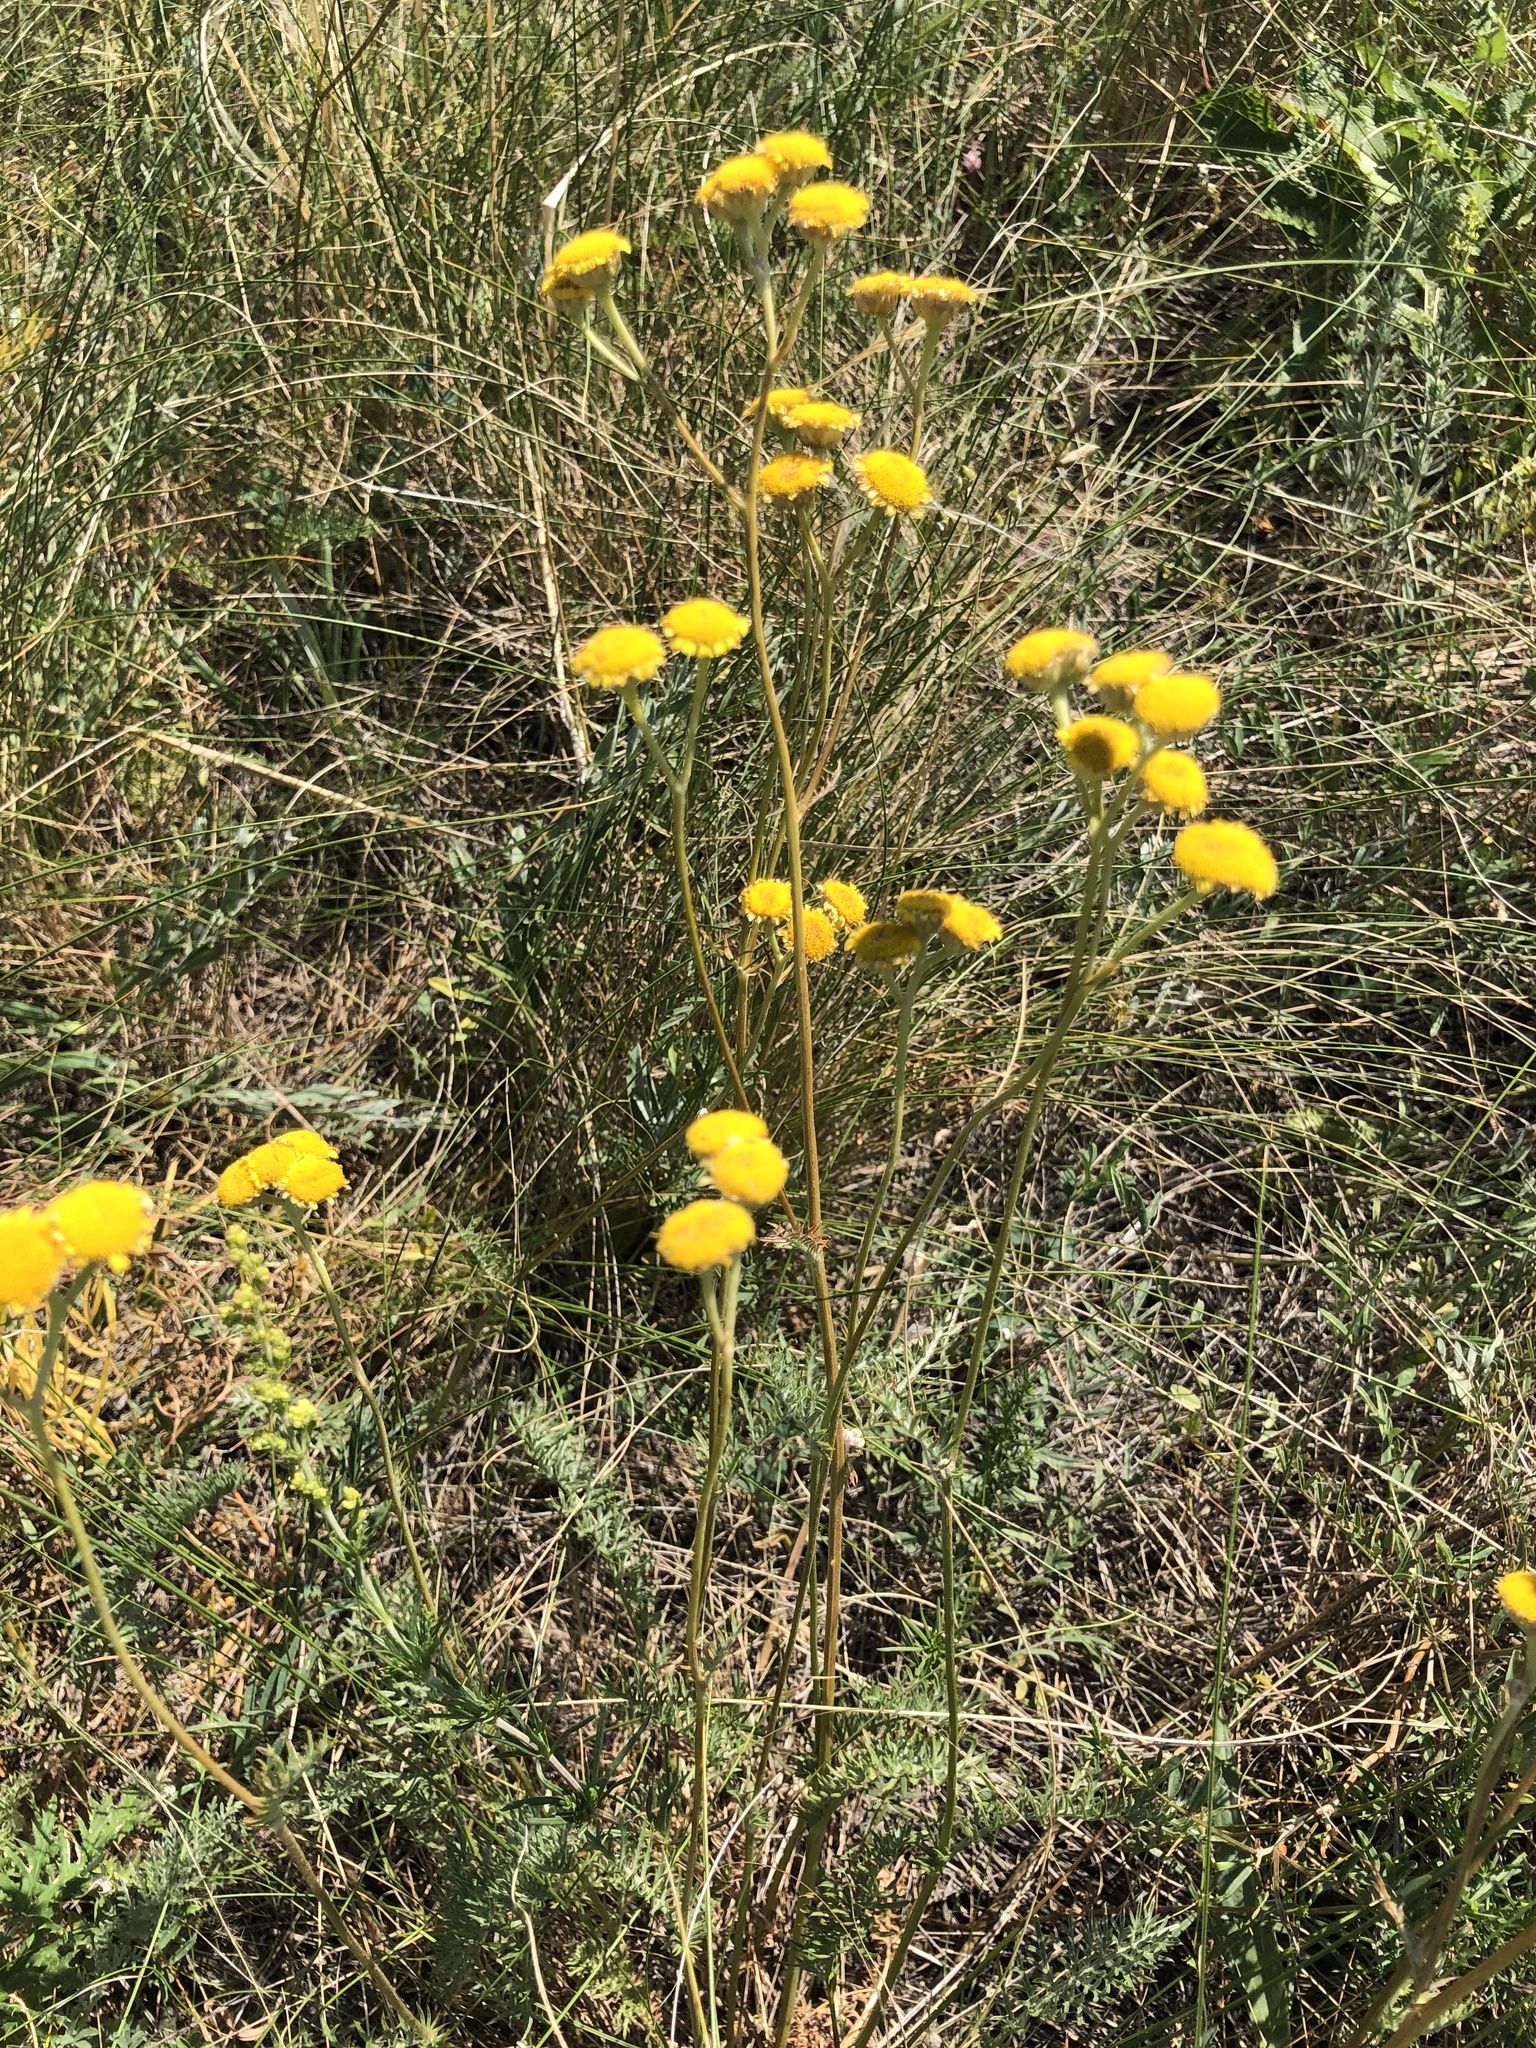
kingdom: Plantae
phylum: Tracheophyta
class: Magnoliopsida
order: Asterales
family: Asteraceae
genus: Tanacetum
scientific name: Tanacetum kittaryanum
